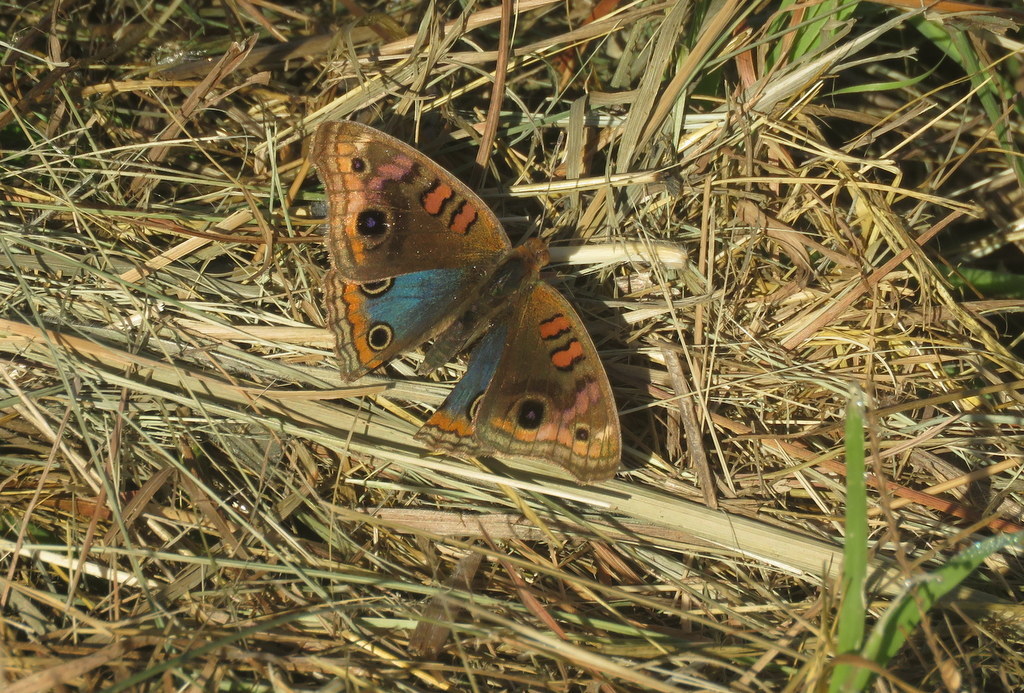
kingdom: Animalia
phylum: Arthropoda
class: Insecta
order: Lepidoptera
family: Nymphalidae
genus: Junonia
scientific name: Junonia lavinia
